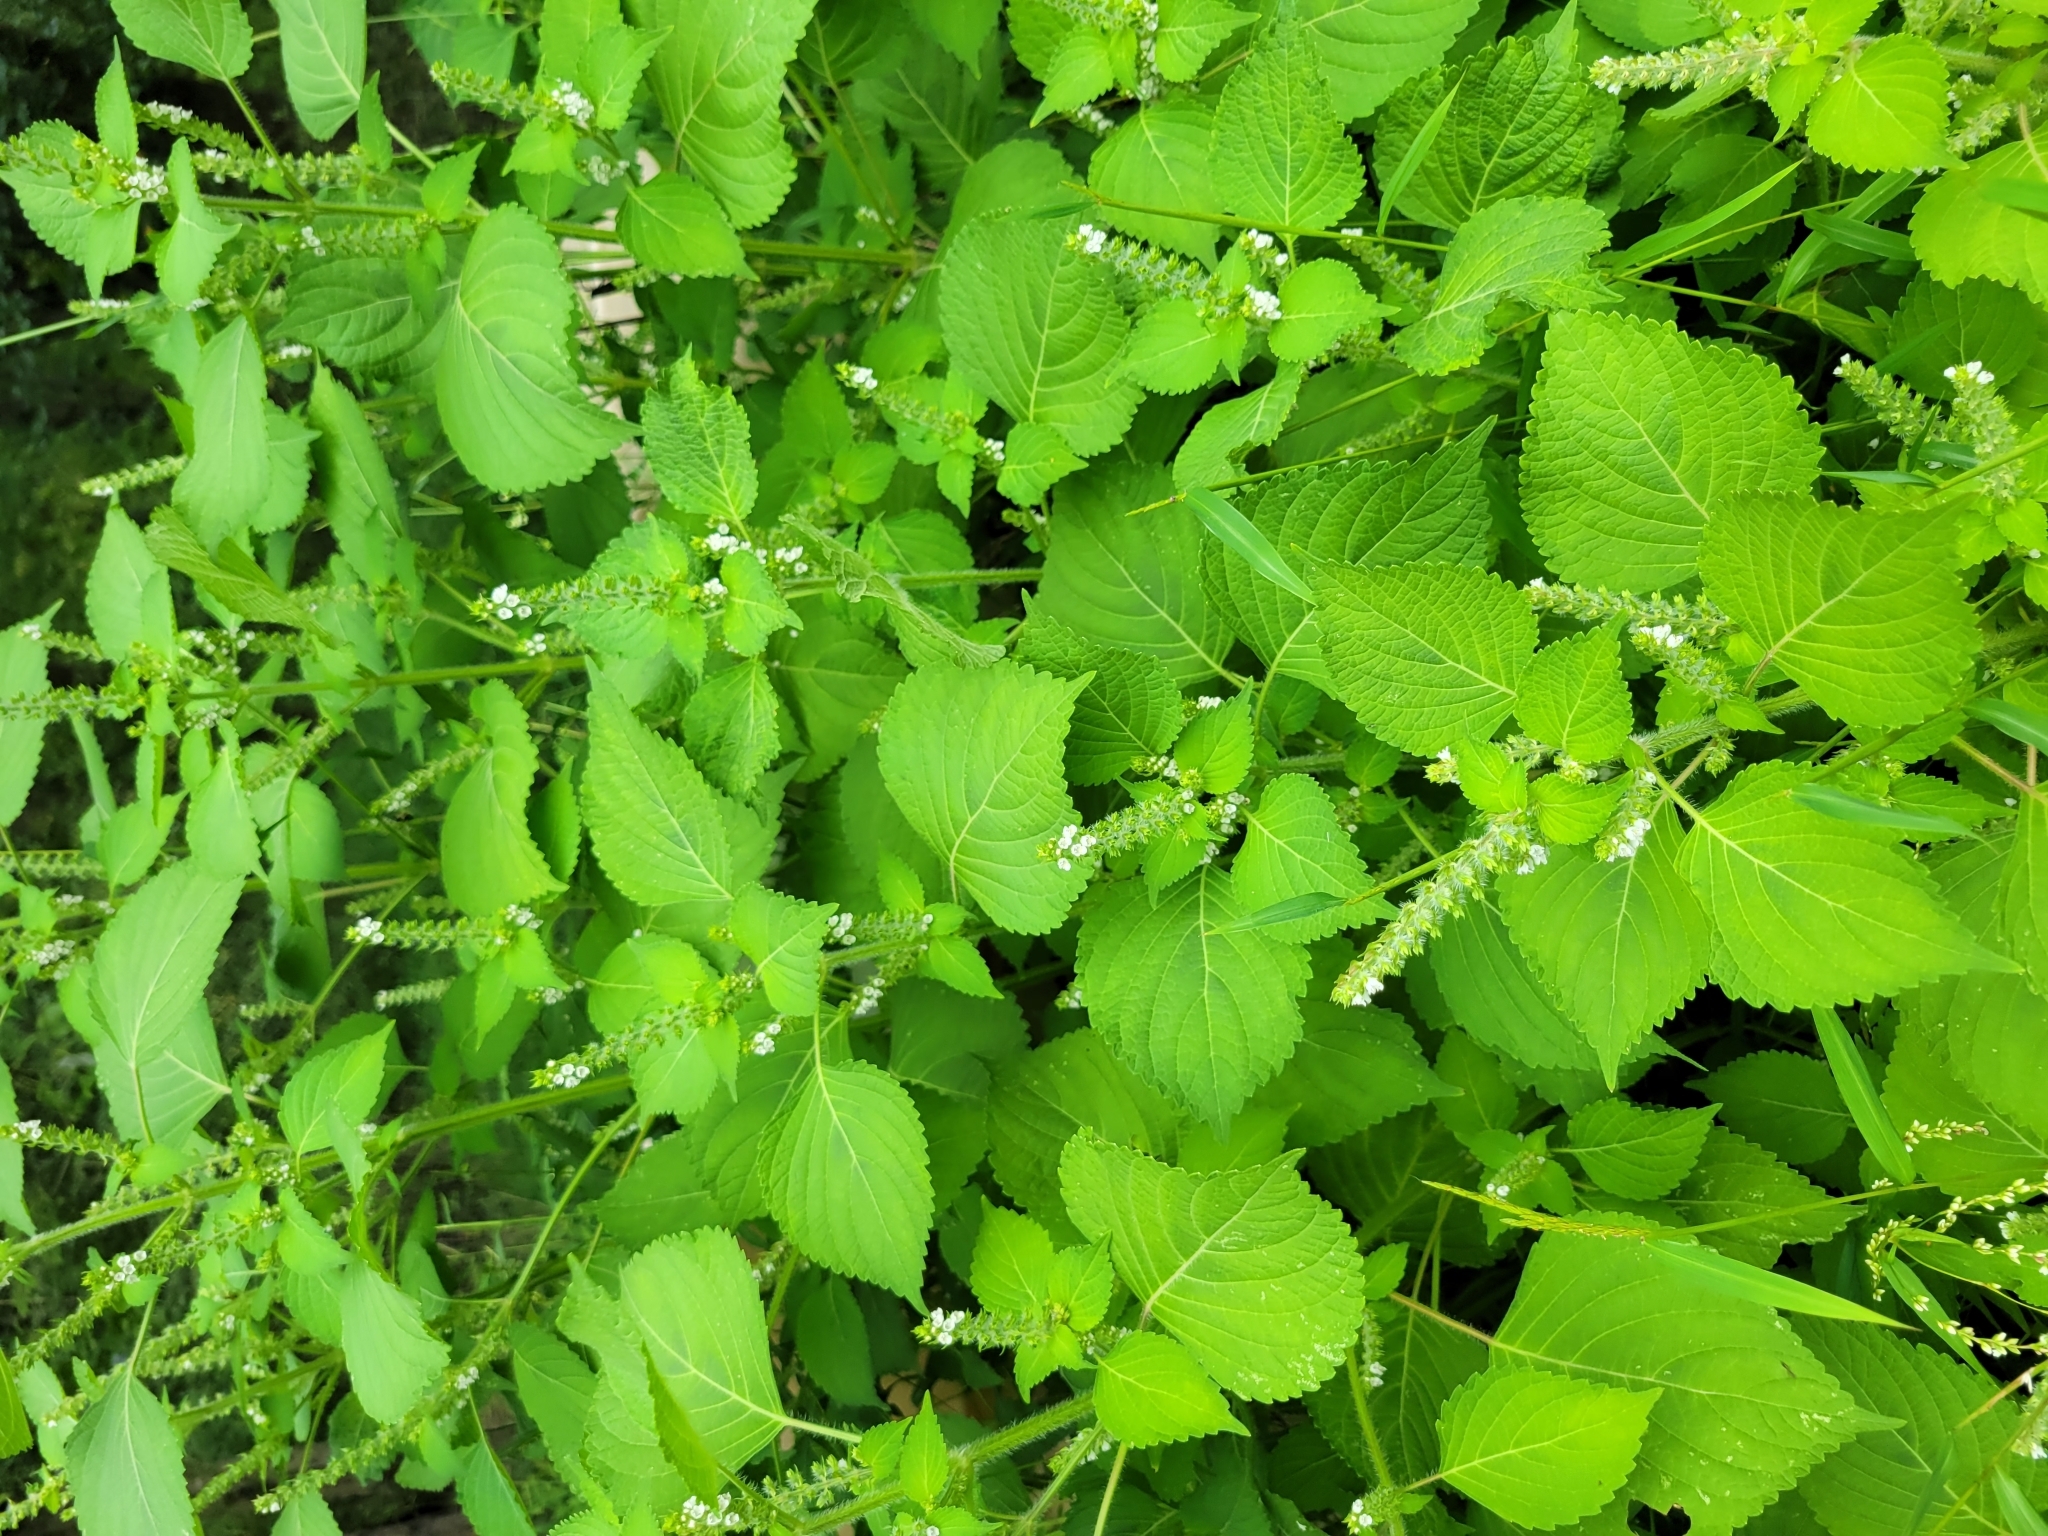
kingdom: Plantae
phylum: Tracheophyta
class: Magnoliopsida
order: Lamiales
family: Lamiaceae
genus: Perilla
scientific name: Perilla frutescens
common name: Perilla
